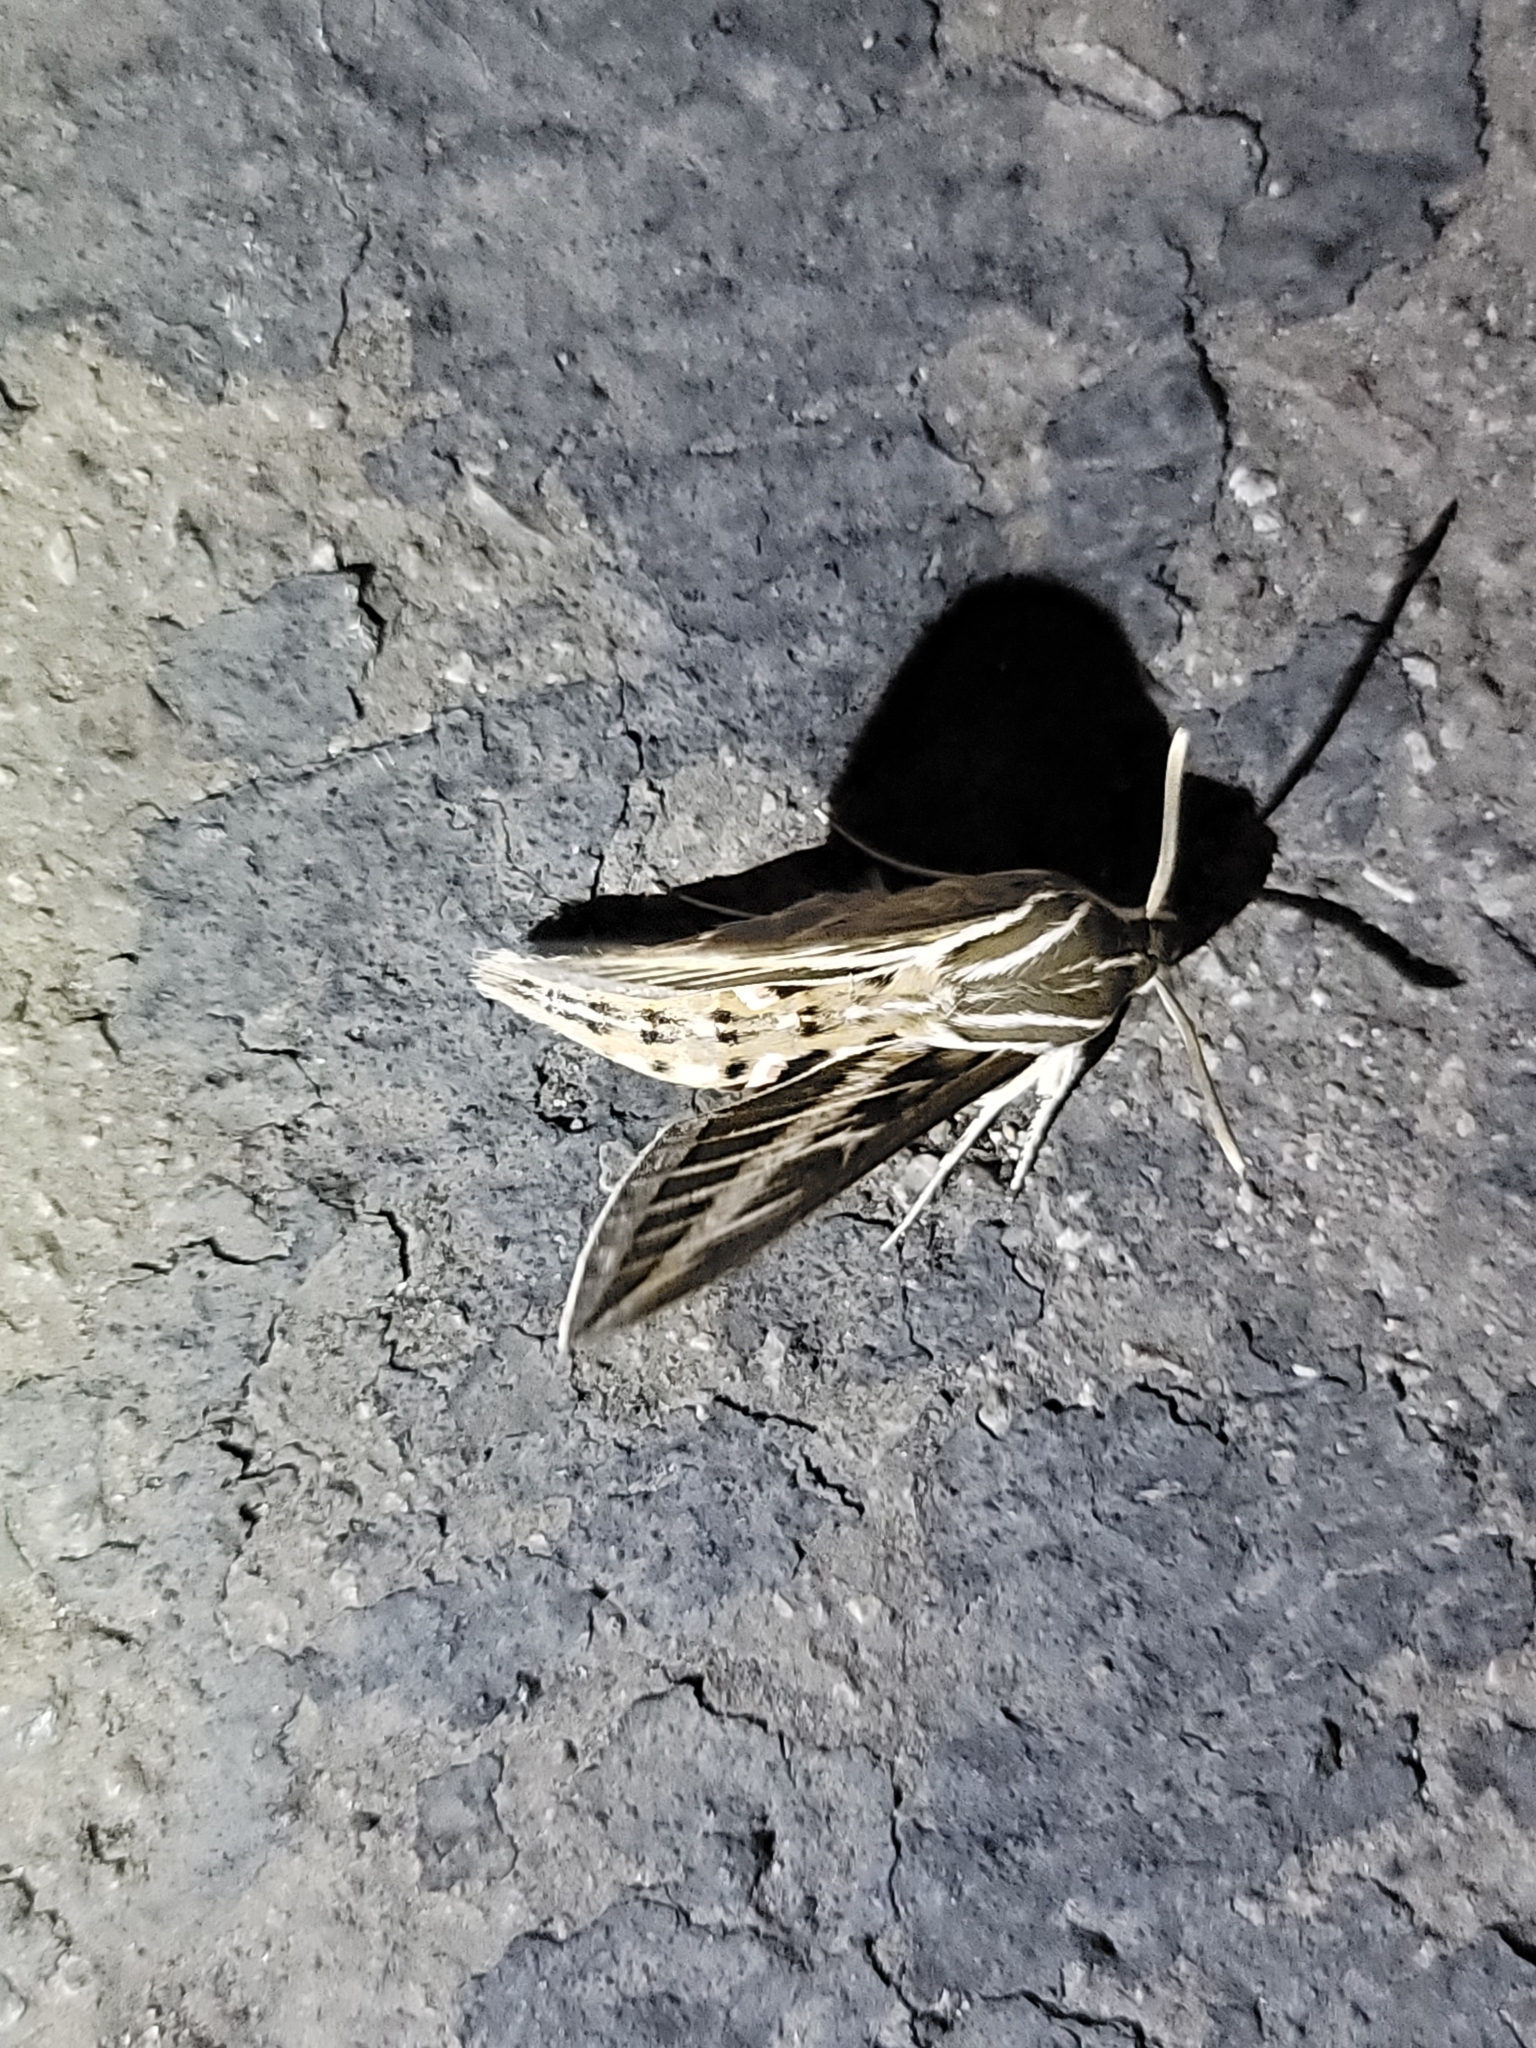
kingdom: Animalia
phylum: Arthropoda
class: Insecta
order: Lepidoptera
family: Sphingidae
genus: Hyles
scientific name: Hyles lineata
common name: White-lined sphinx
